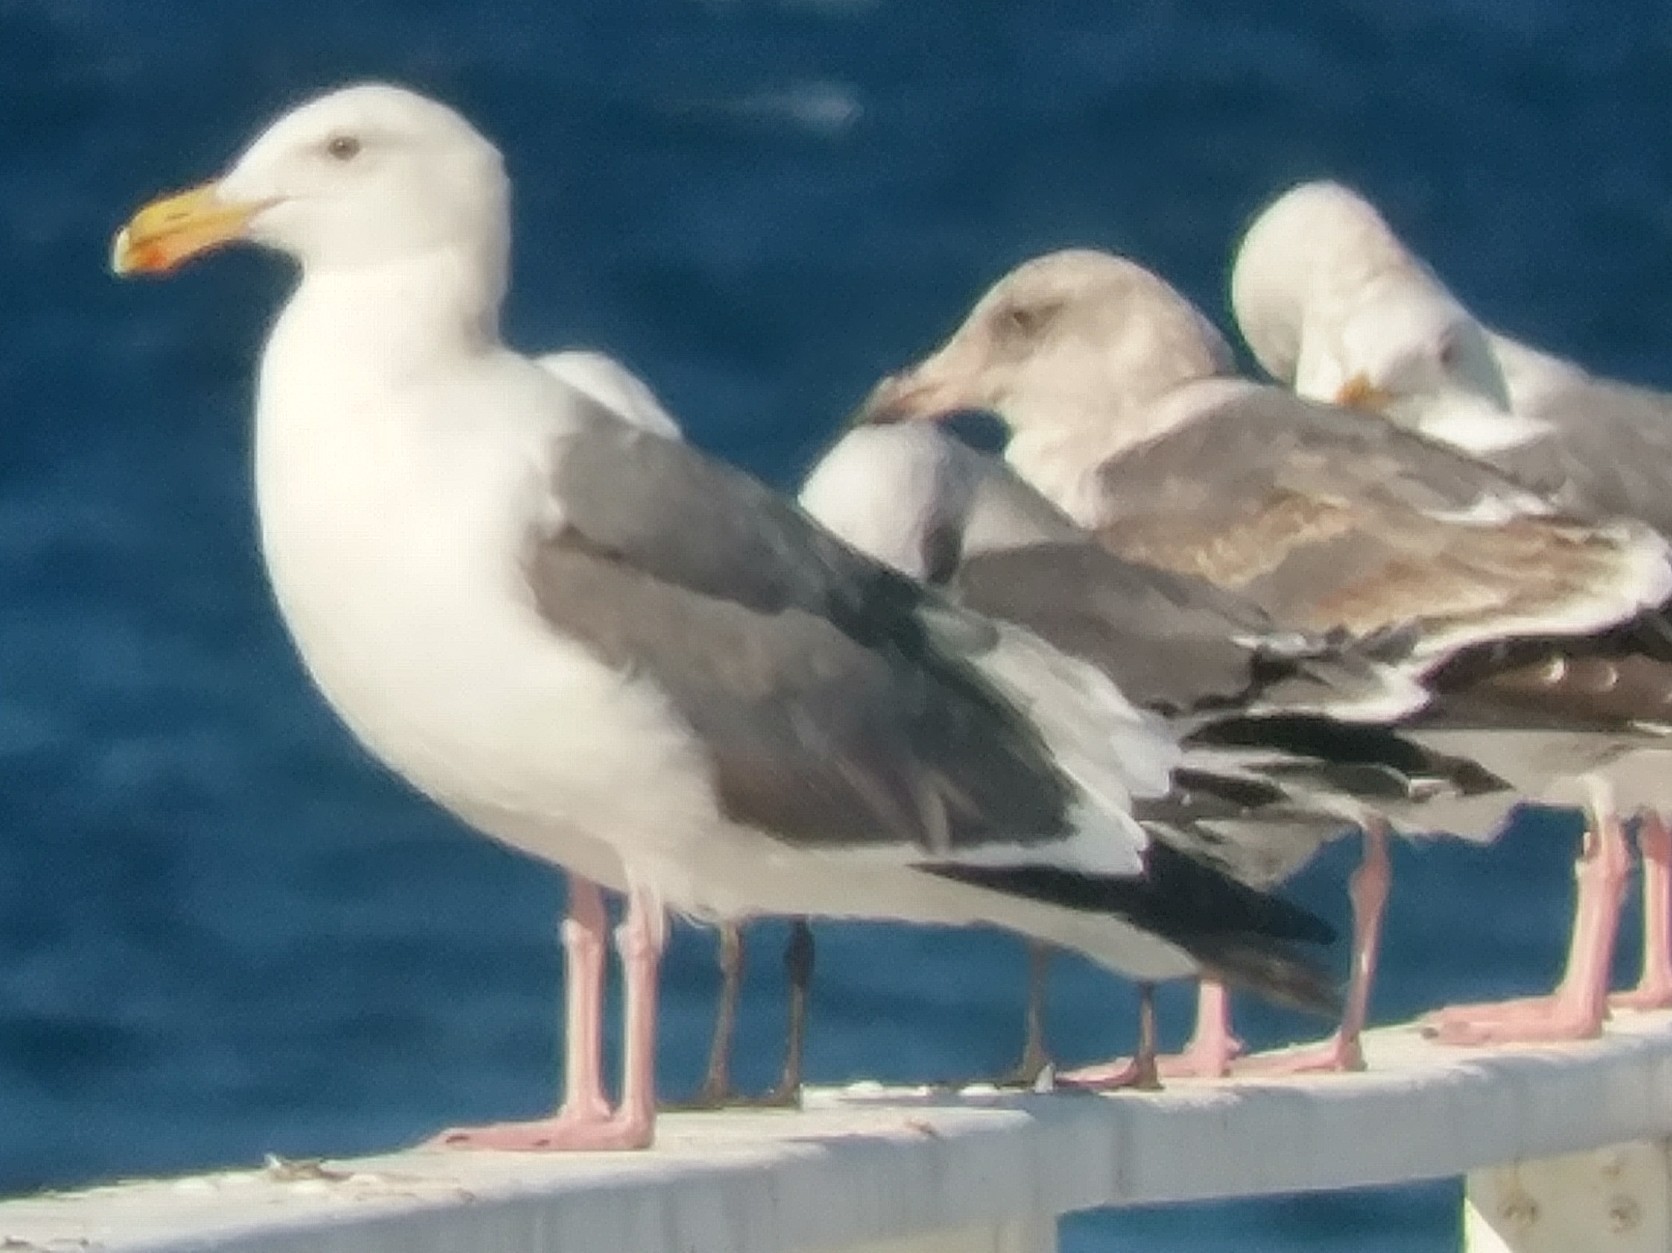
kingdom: Animalia
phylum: Chordata
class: Aves
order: Charadriiformes
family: Laridae
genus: Larus
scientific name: Larus occidentalis
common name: Western gull
